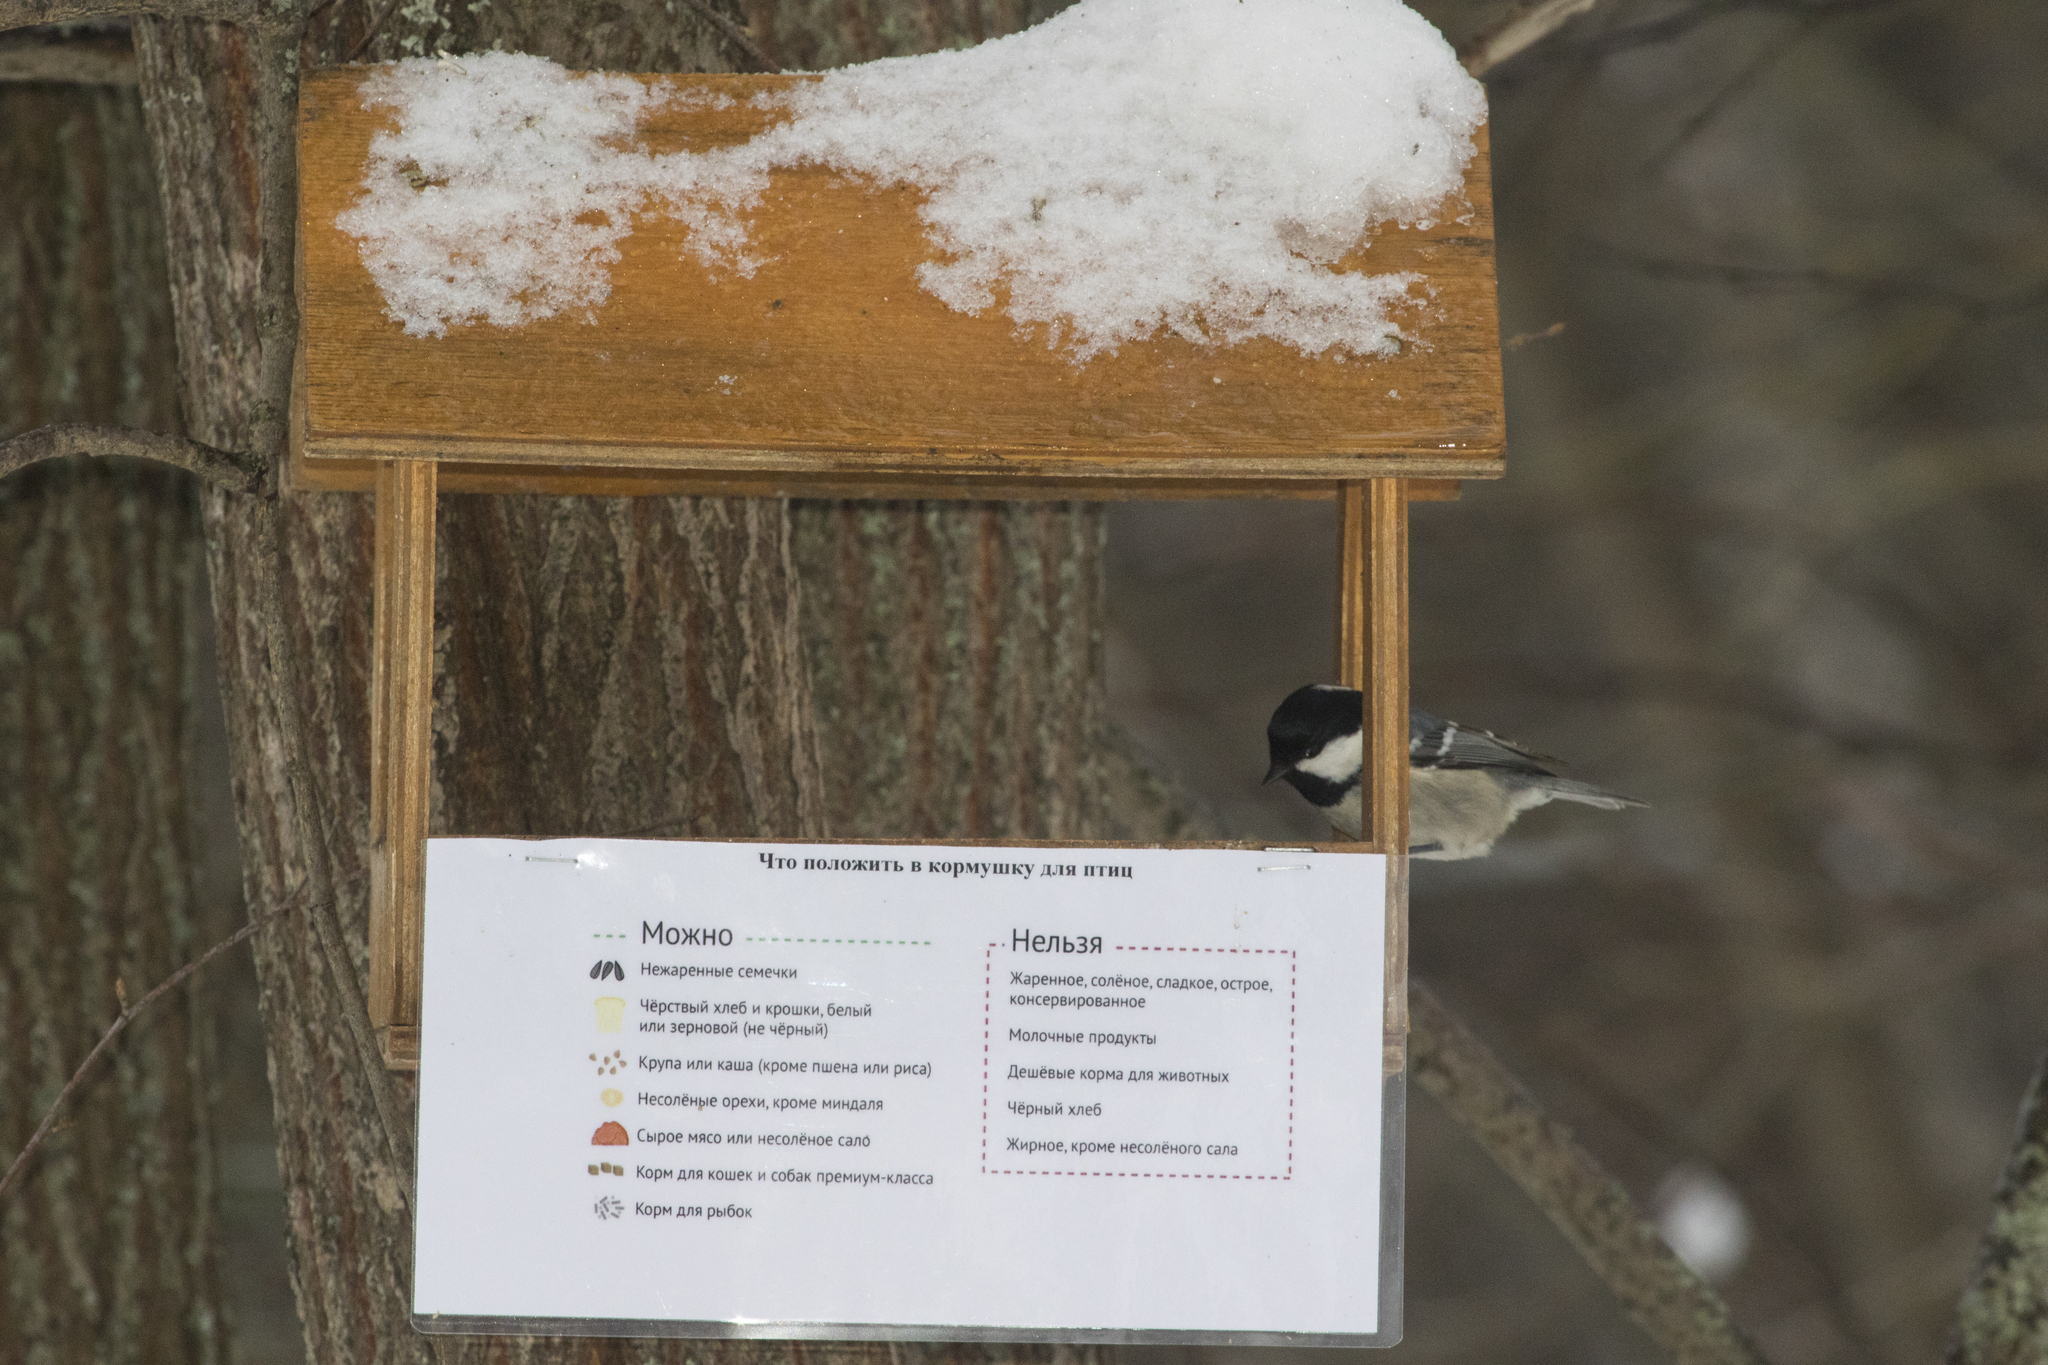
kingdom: Animalia
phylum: Chordata
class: Aves
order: Passeriformes
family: Paridae
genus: Periparus
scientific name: Periparus ater
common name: Coal tit
